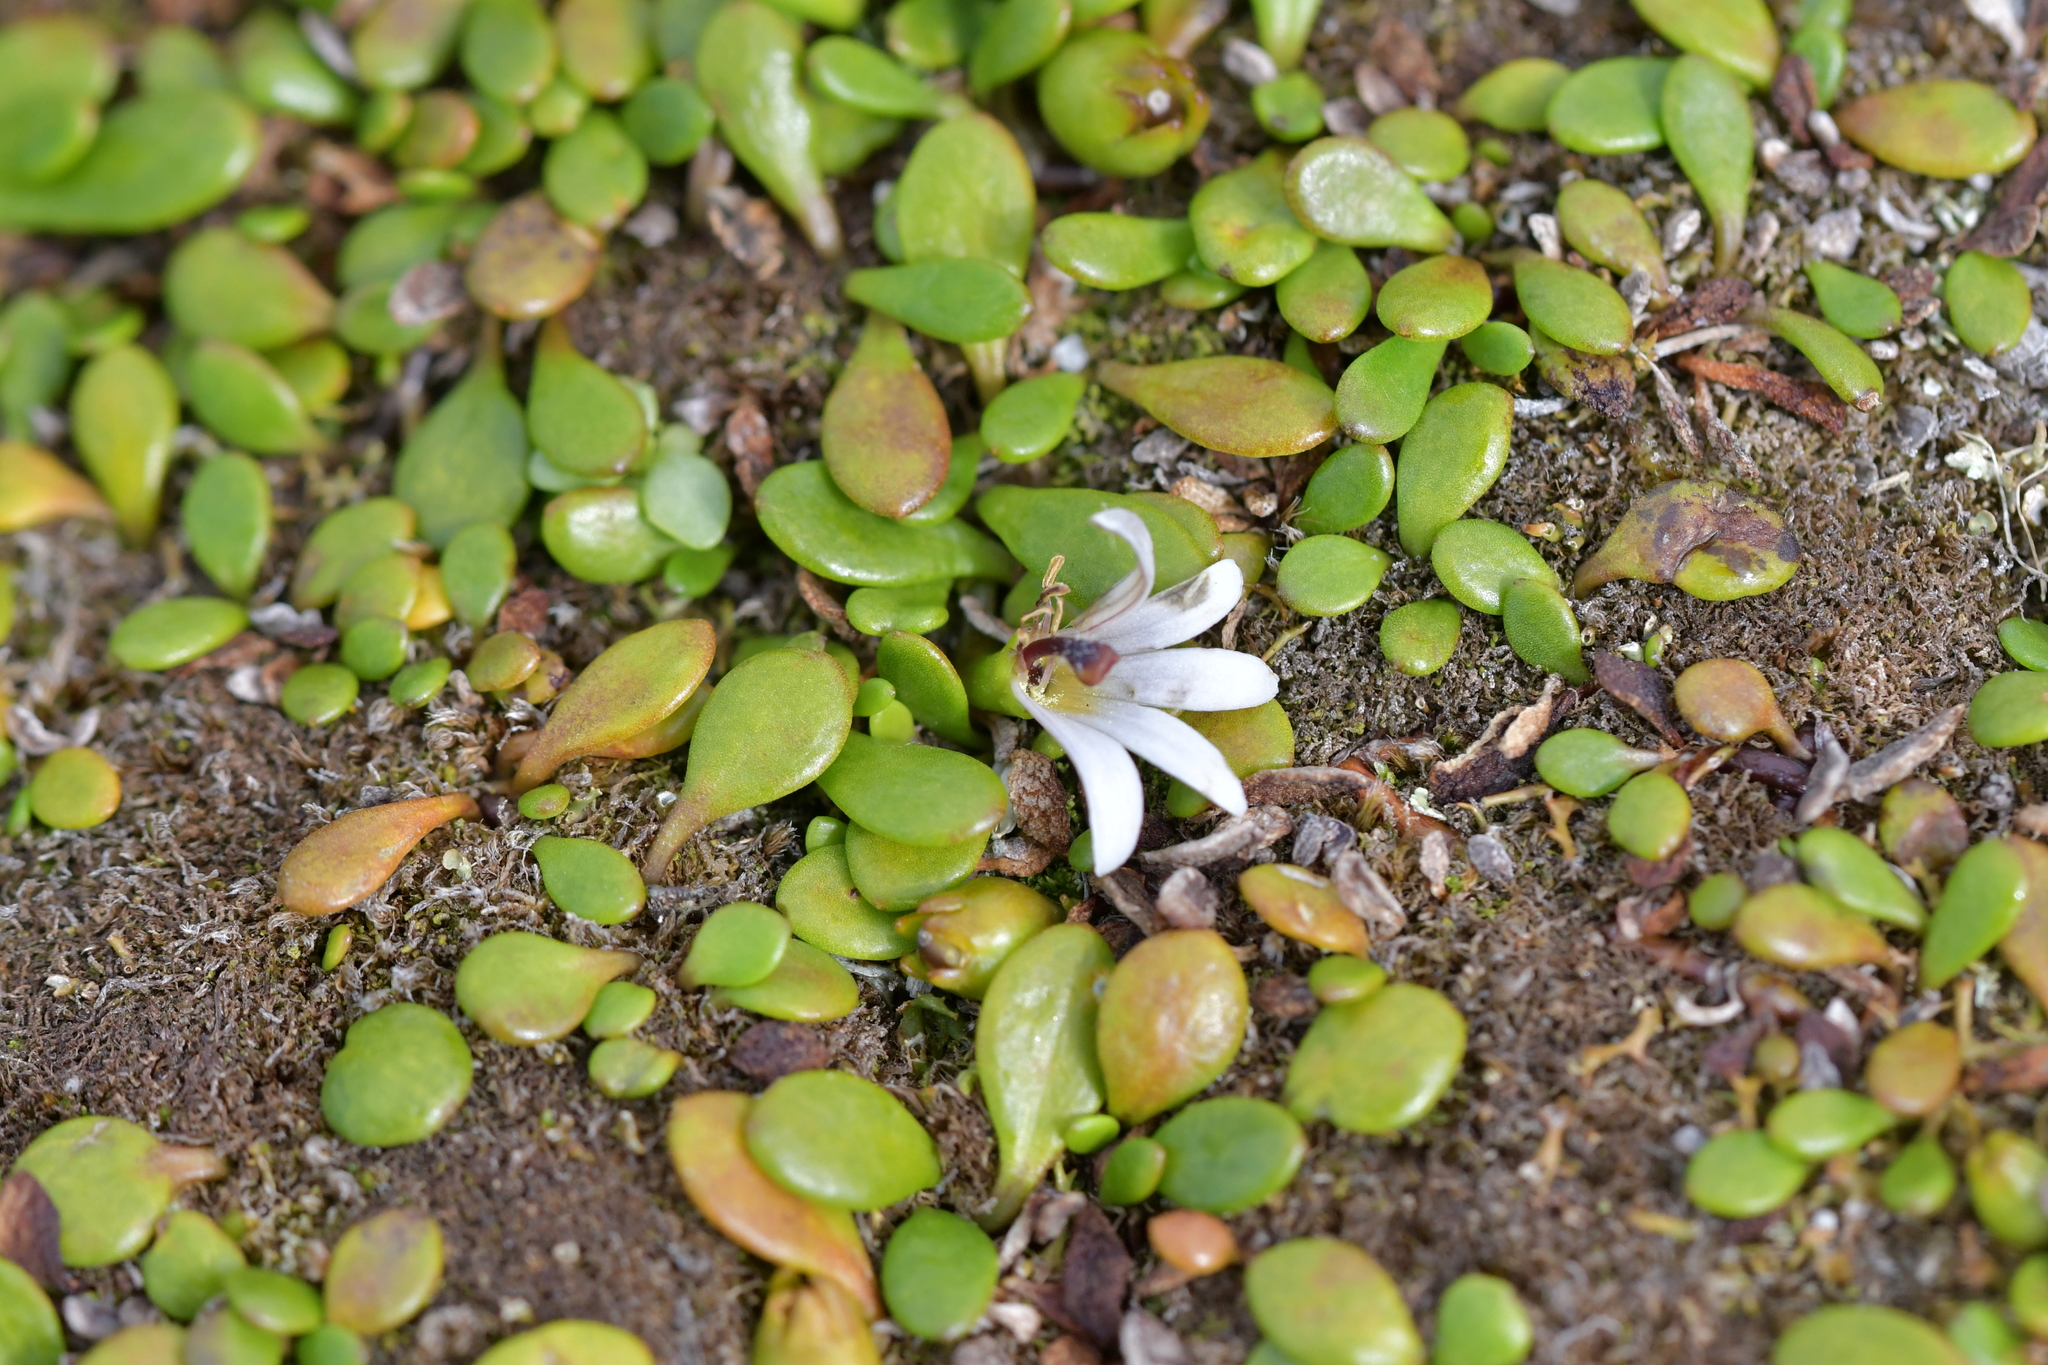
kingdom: Plantae
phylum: Tracheophyta
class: Magnoliopsida
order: Asterales
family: Goodeniaceae
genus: Goodenia
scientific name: Goodenia radicans
